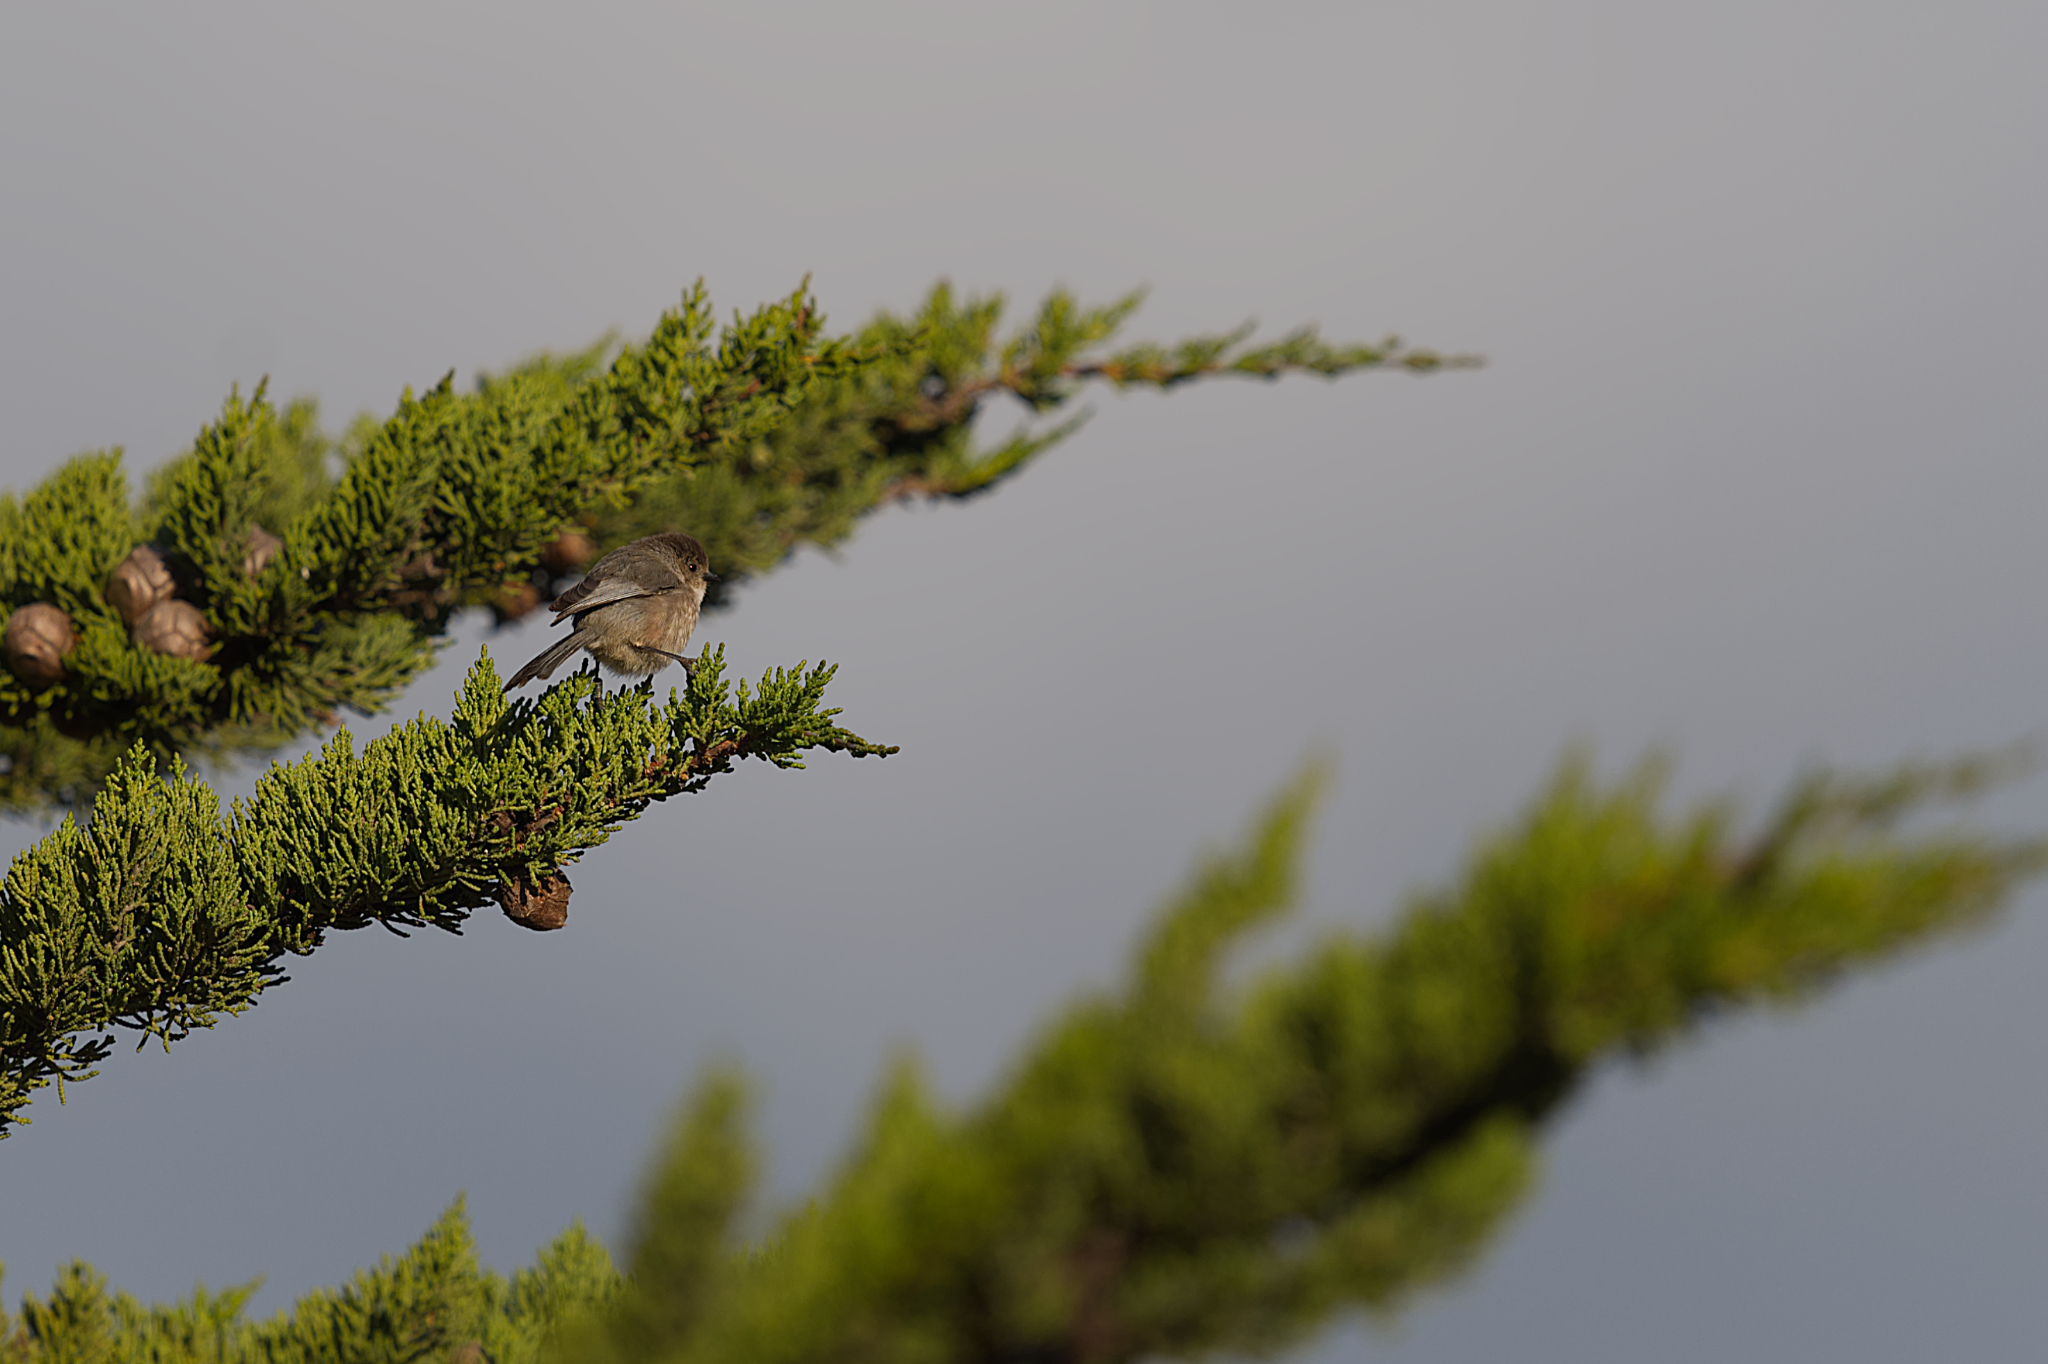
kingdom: Animalia
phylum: Chordata
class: Aves
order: Passeriformes
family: Aegithalidae
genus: Psaltriparus
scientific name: Psaltriparus minimus
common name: American bushtit
